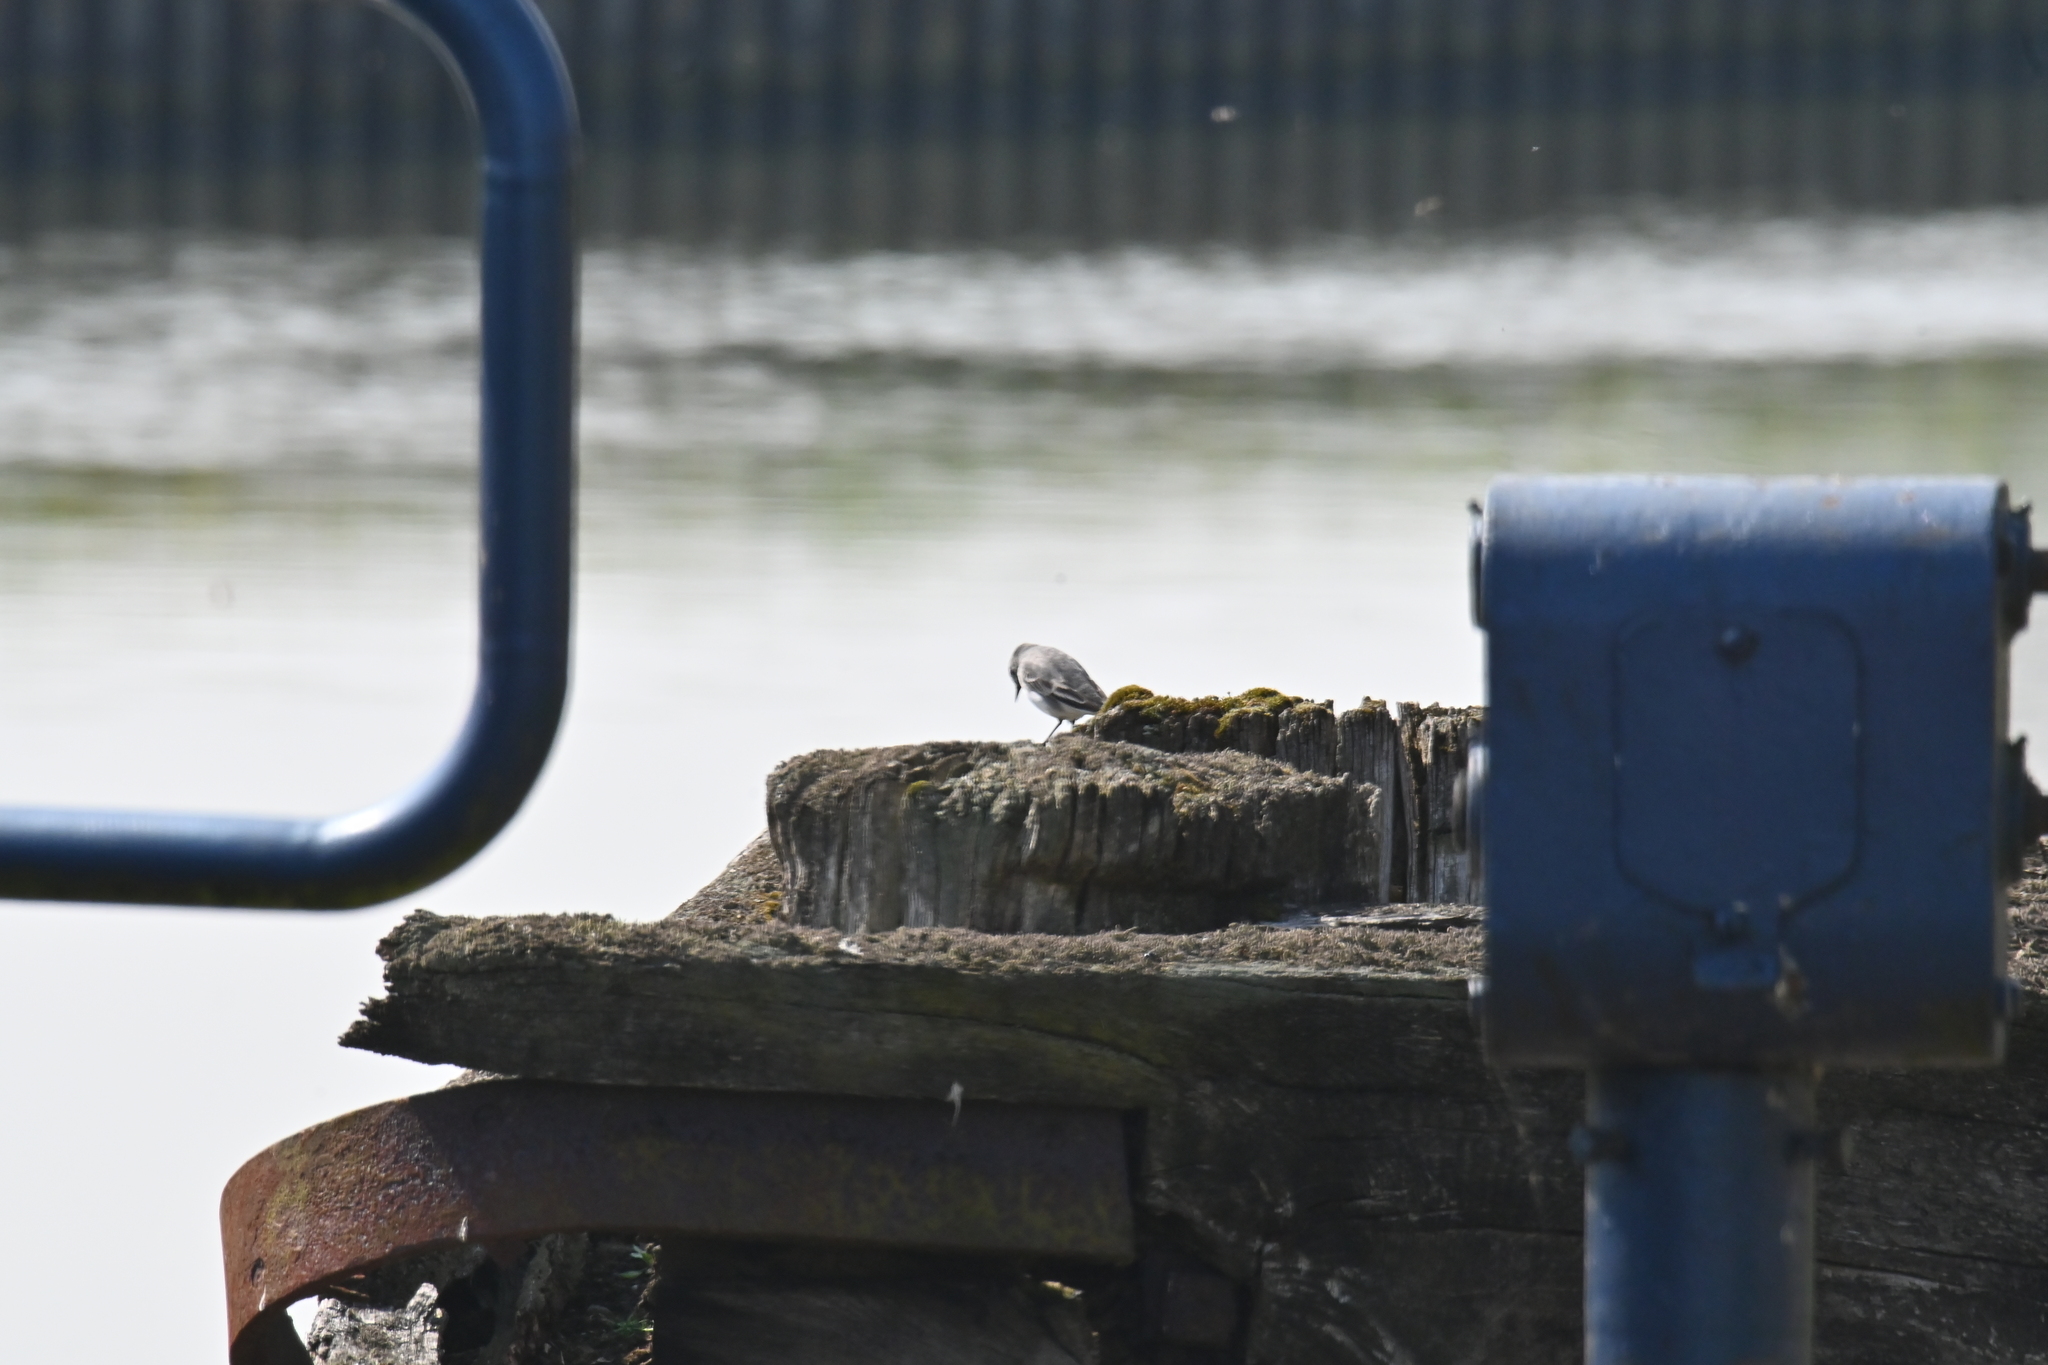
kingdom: Animalia
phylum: Chordata
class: Aves
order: Passeriformes
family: Motacillidae
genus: Motacilla
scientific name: Motacilla alba
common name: White wagtail
